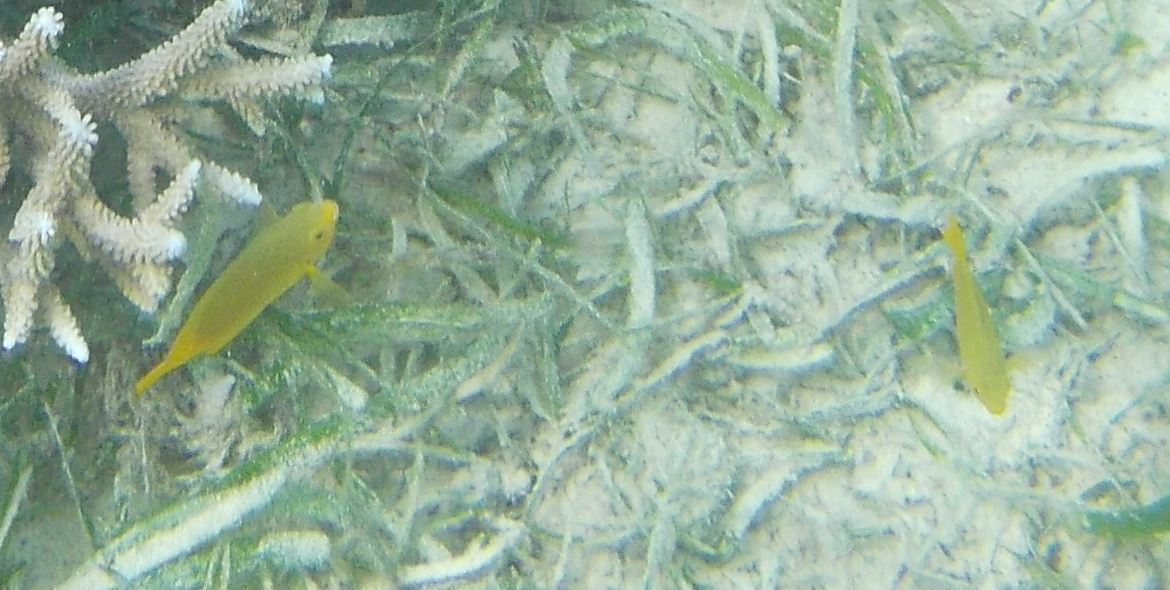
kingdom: Animalia
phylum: Chordata
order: Perciformes
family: Pomacentridae
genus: Pomacentrus
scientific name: Pomacentrus moluccensis
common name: Lemon damsel
